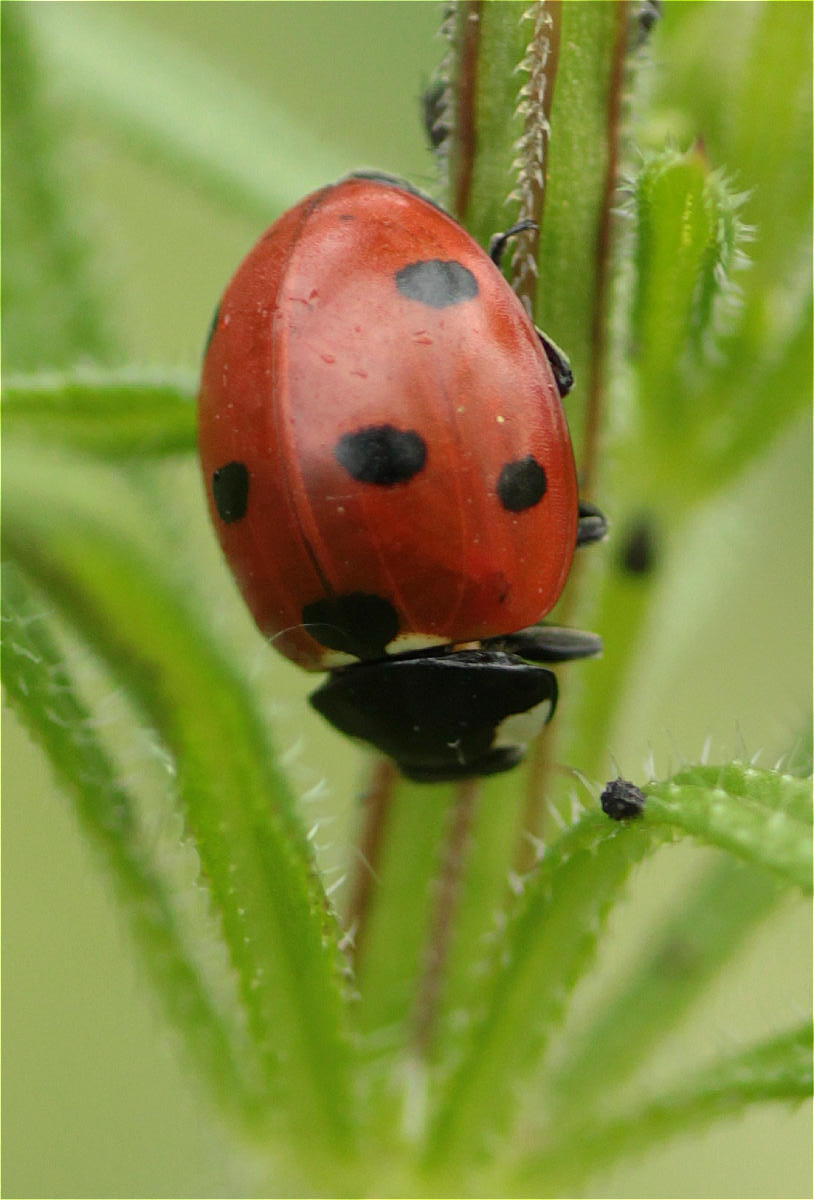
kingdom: Animalia
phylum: Arthropoda
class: Insecta
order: Coleoptera
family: Coccinellidae
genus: Coccinella
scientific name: Coccinella septempunctata
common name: Sevenspotted lady beetle
